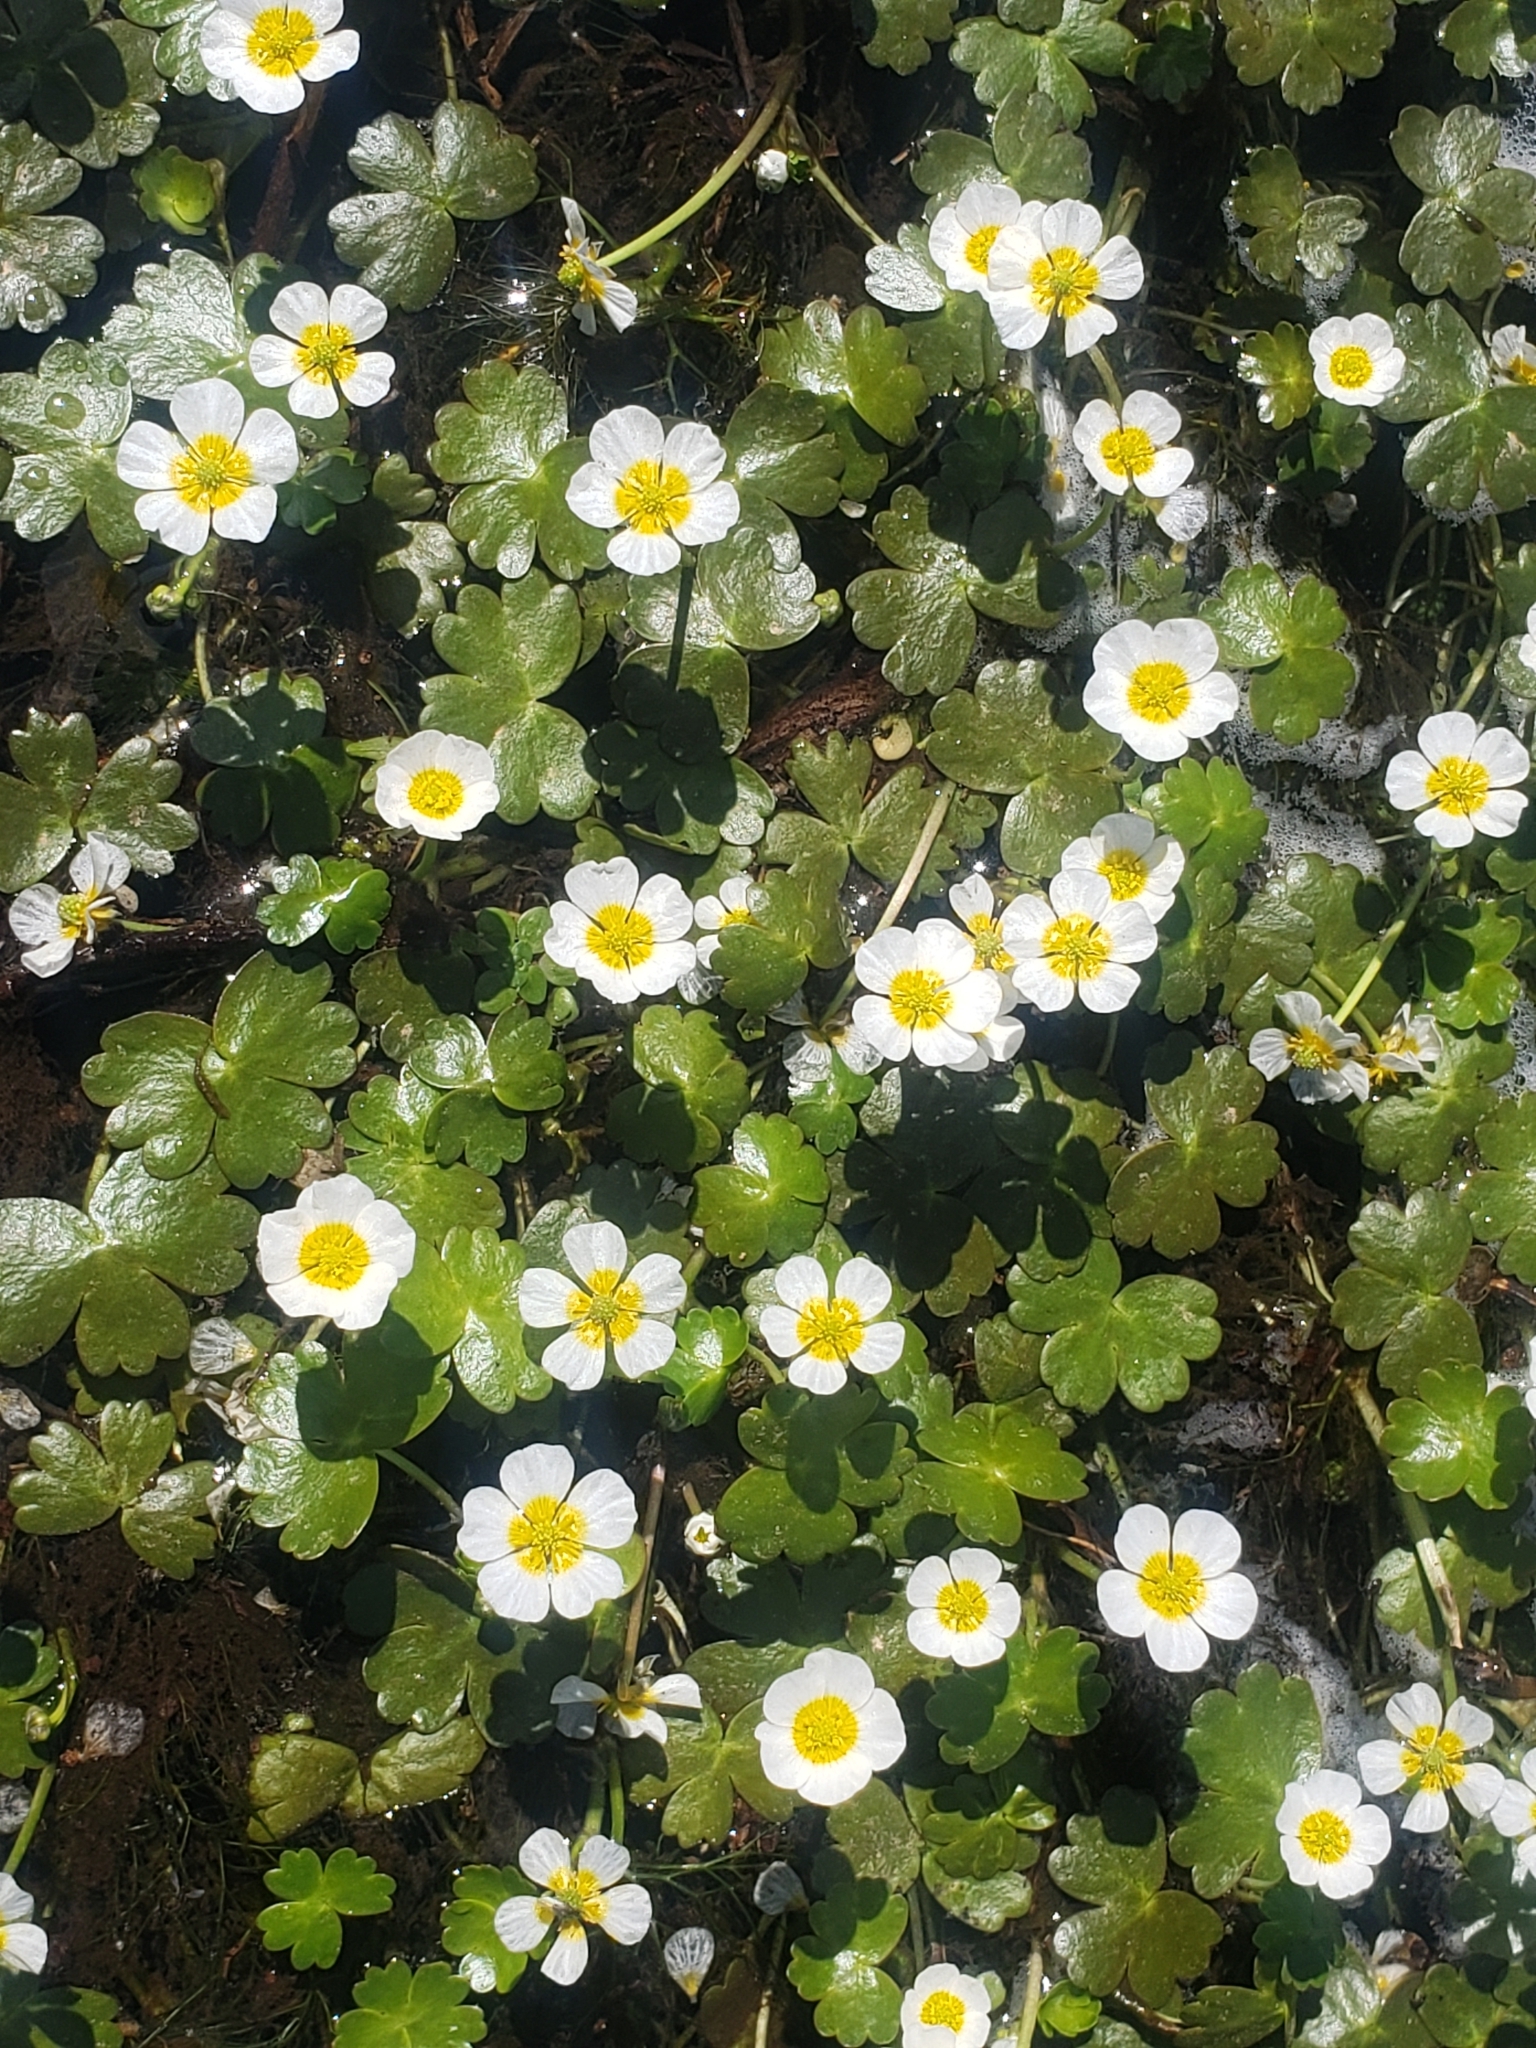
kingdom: Plantae
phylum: Tracheophyta
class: Magnoliopsida
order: Ranunculales
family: Ranunculaceae
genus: Ranunculus
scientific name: Ranunculus peltatus
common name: Pond water-crowfoot
